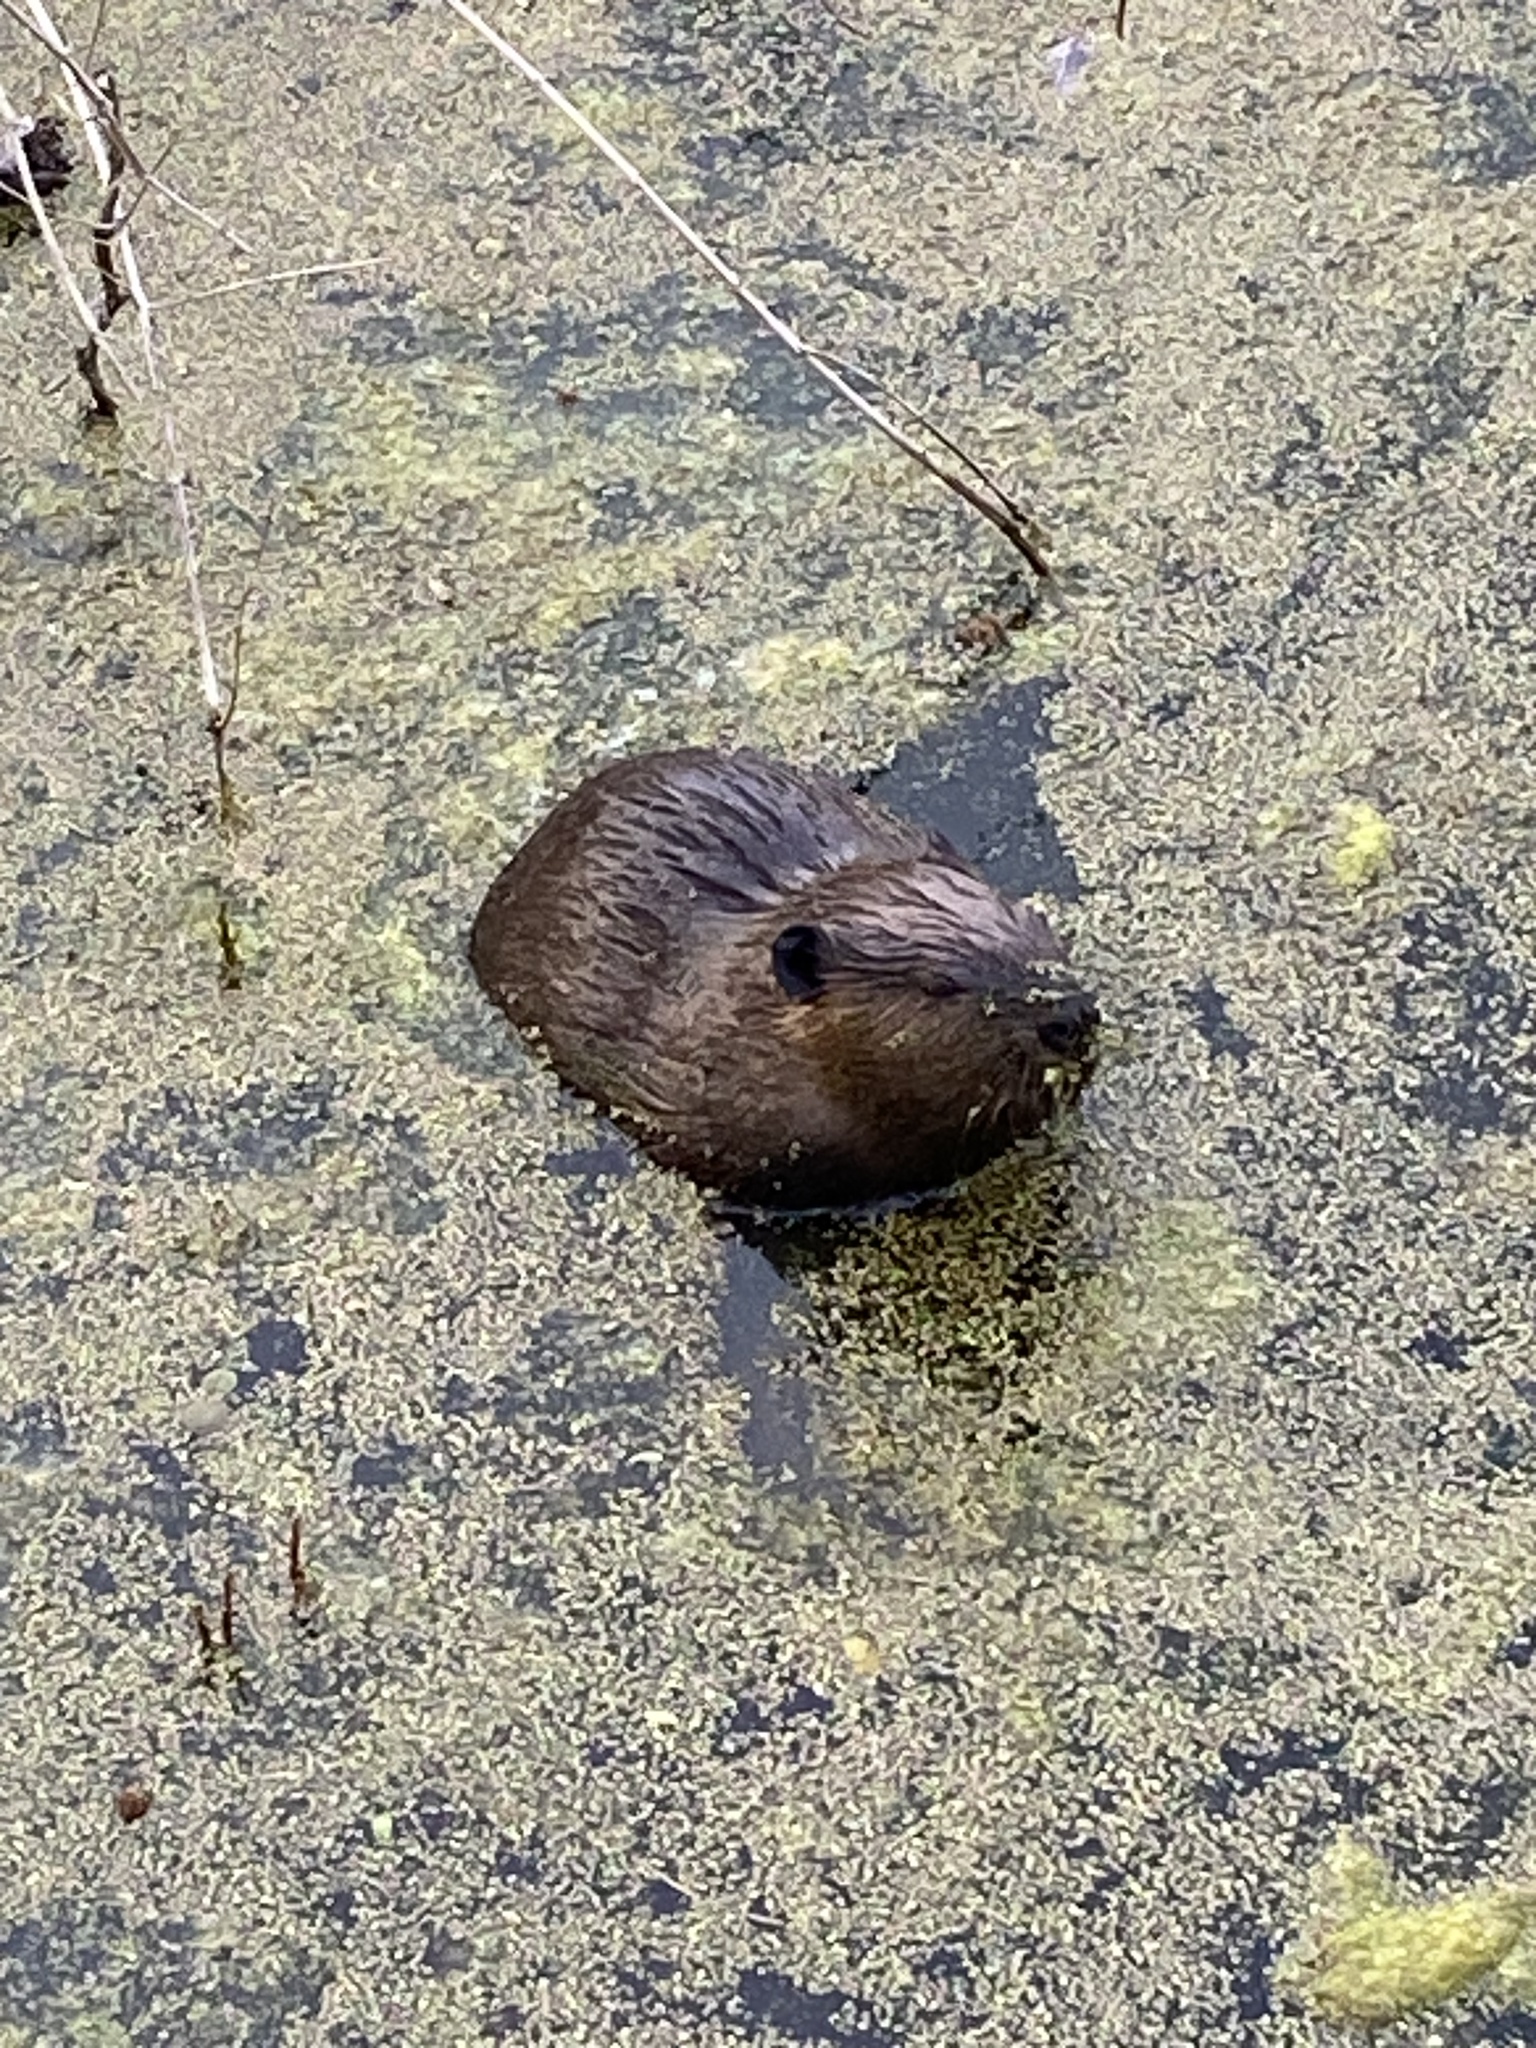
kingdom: Animalia
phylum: Chordata
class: Mammalia
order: Rodentia
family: Castoridae
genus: Castor
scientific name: Castor canadensis
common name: American beaver
